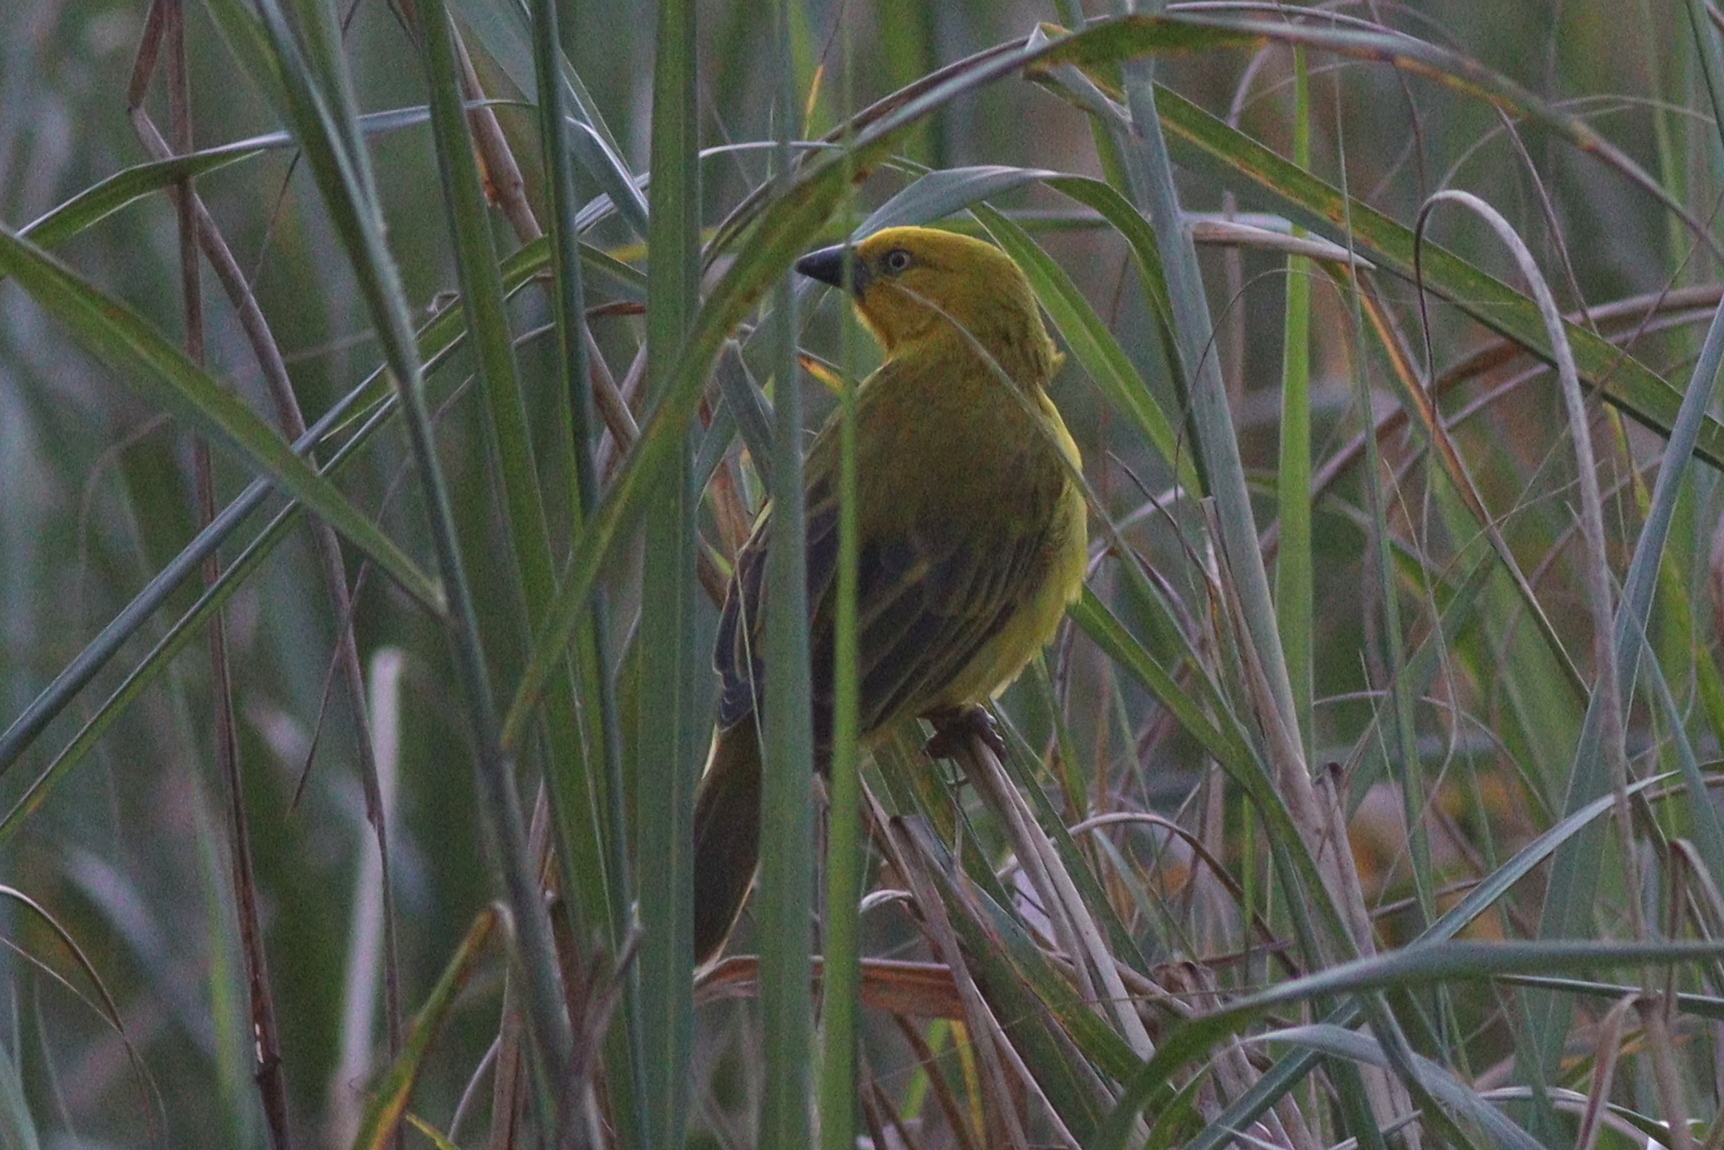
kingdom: Animalia
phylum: Chordata
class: Aves
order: Passeriformes
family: Ploceidae
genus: Ploceus
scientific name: Ploceus xanthops
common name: Holub's golden weaver
